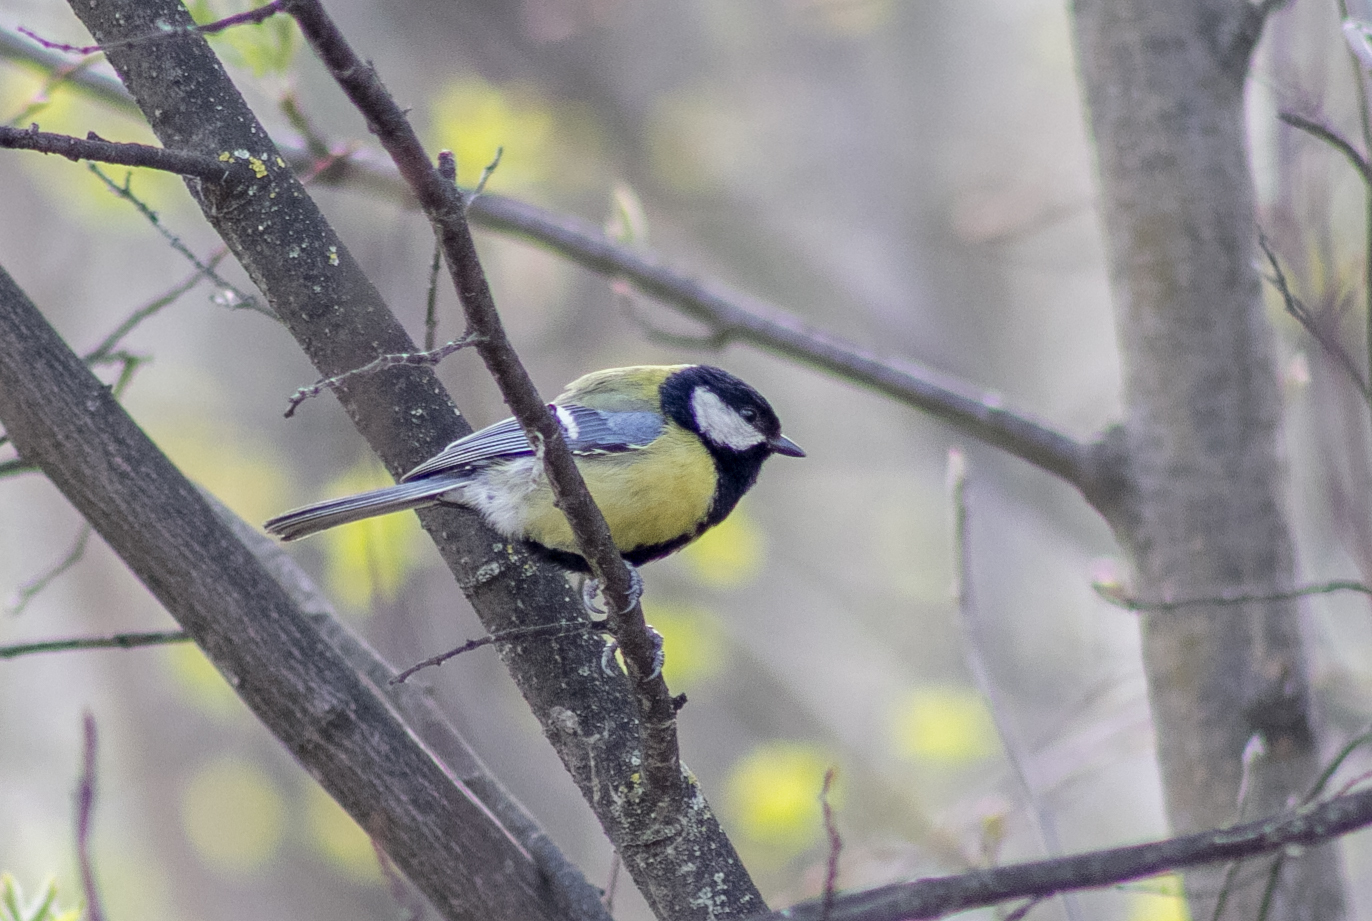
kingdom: Animalia
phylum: Chordata
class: Aves
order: Passeriformes
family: Paridae
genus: Parus
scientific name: Parus major
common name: Great tit
